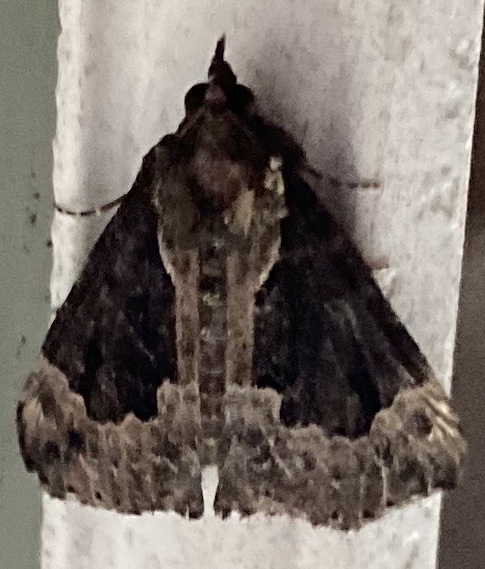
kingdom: Animalia
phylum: Arthropoda
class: Insecta
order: Lepidoptera
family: Erebidae
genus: Hypena
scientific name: Hypena baltimoralis
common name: Baltimore snout
